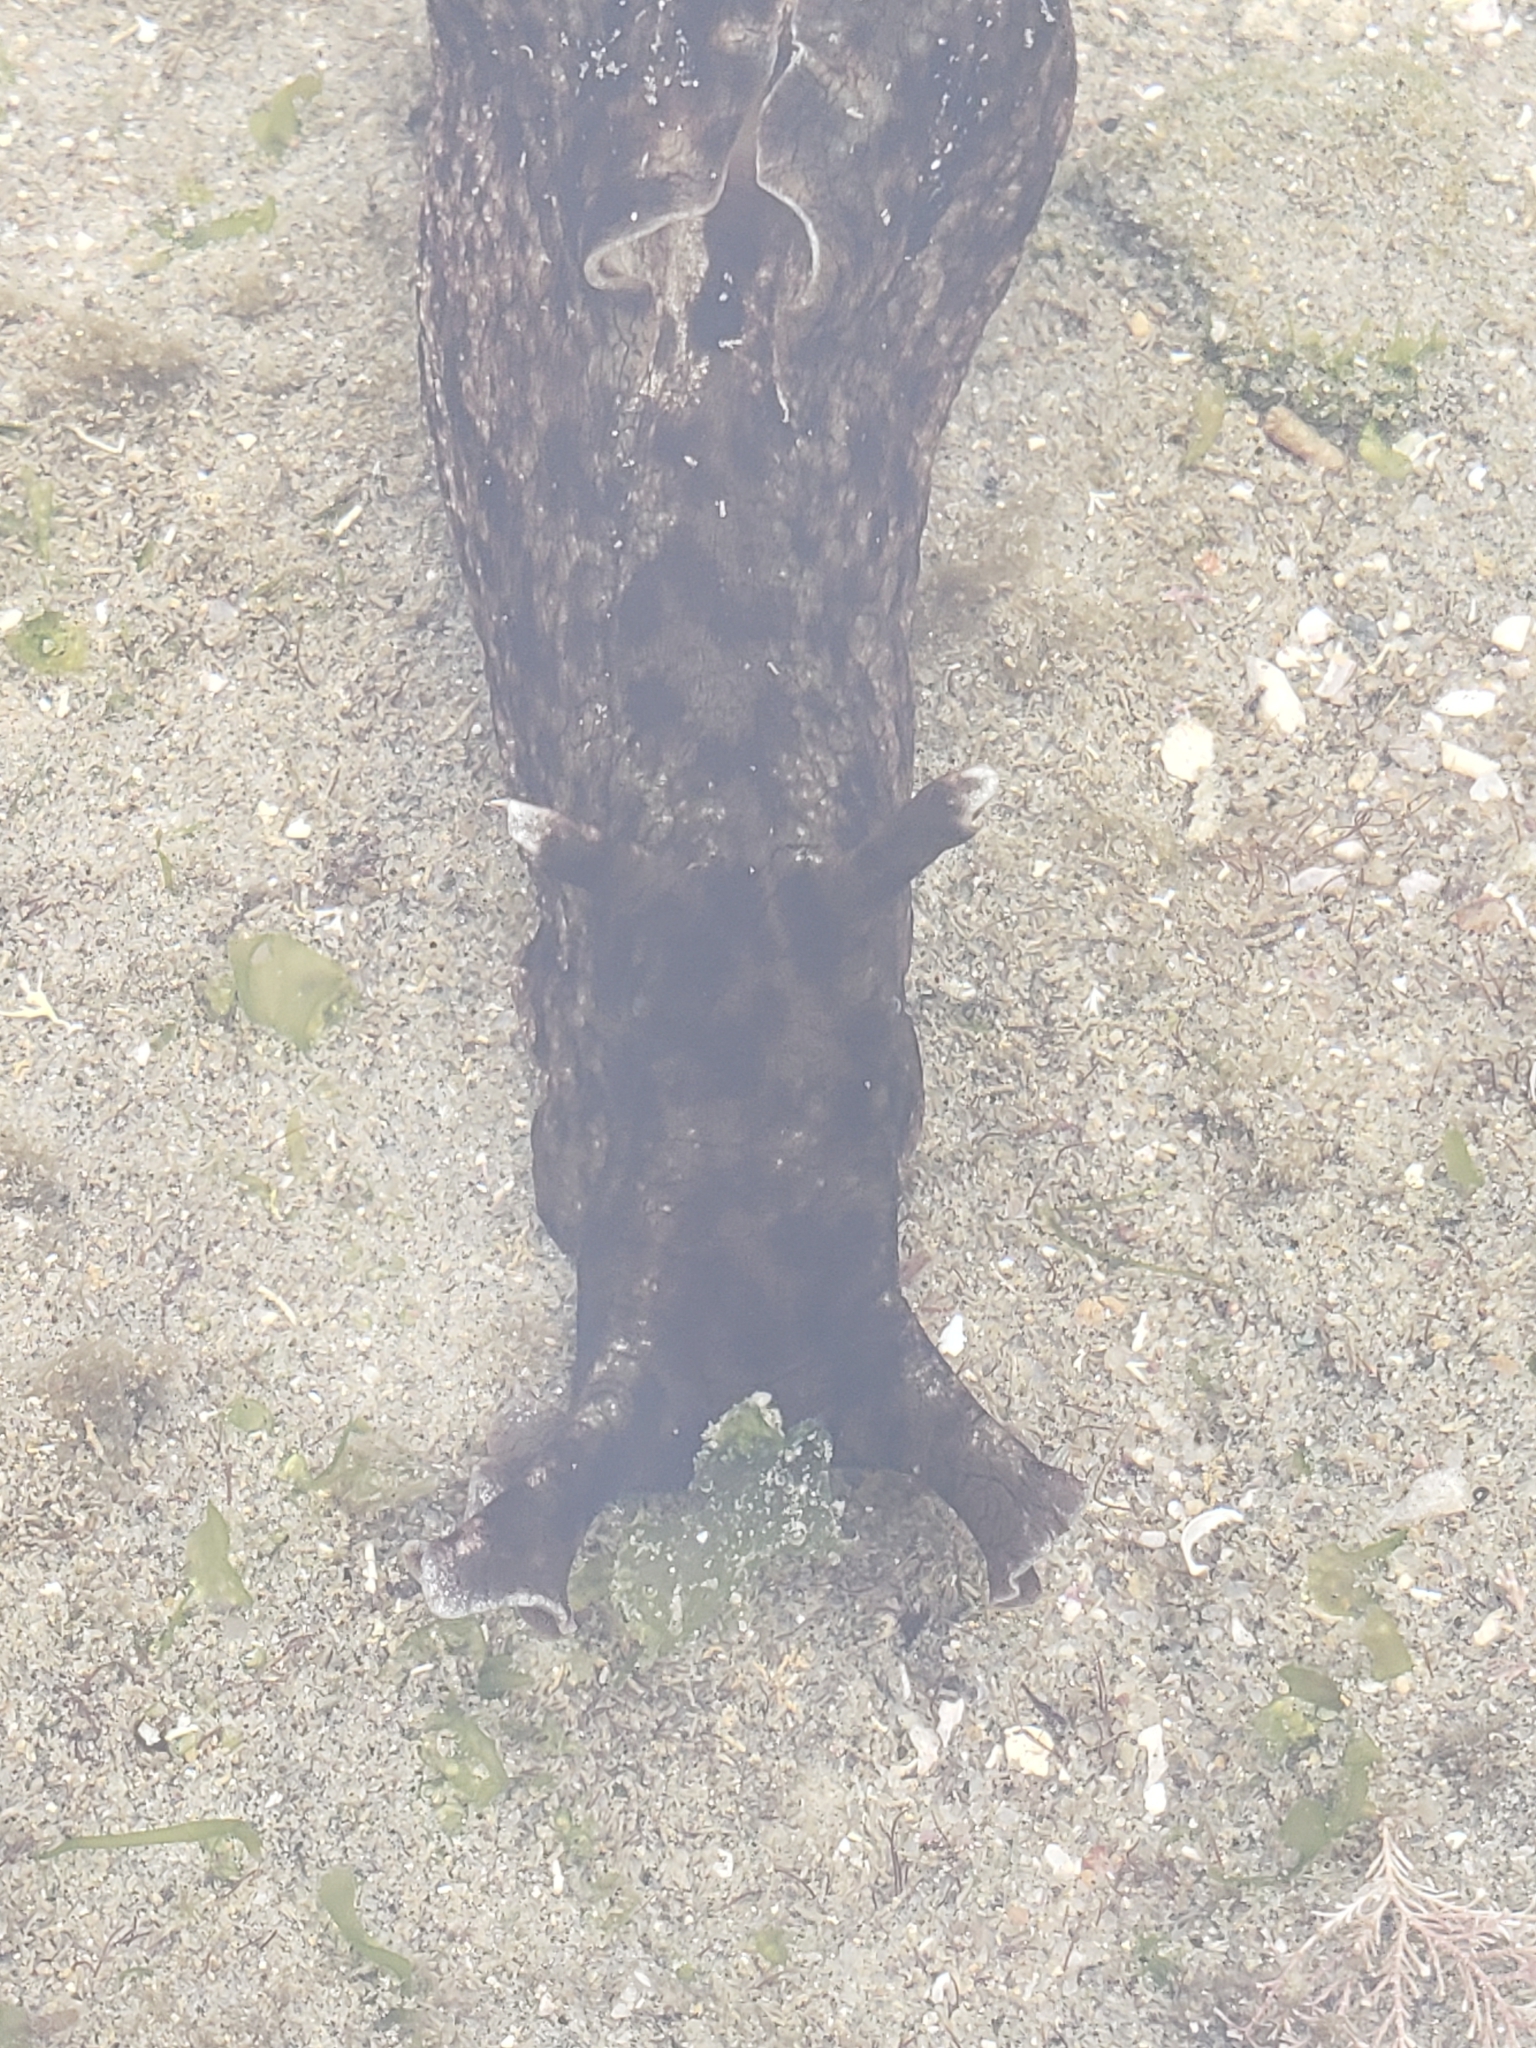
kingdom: Animalia
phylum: Mollusca
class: Gastropoda
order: Aplysiida
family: Aplysiidae
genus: Aplysia
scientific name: Aplysia californica
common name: California seahare
